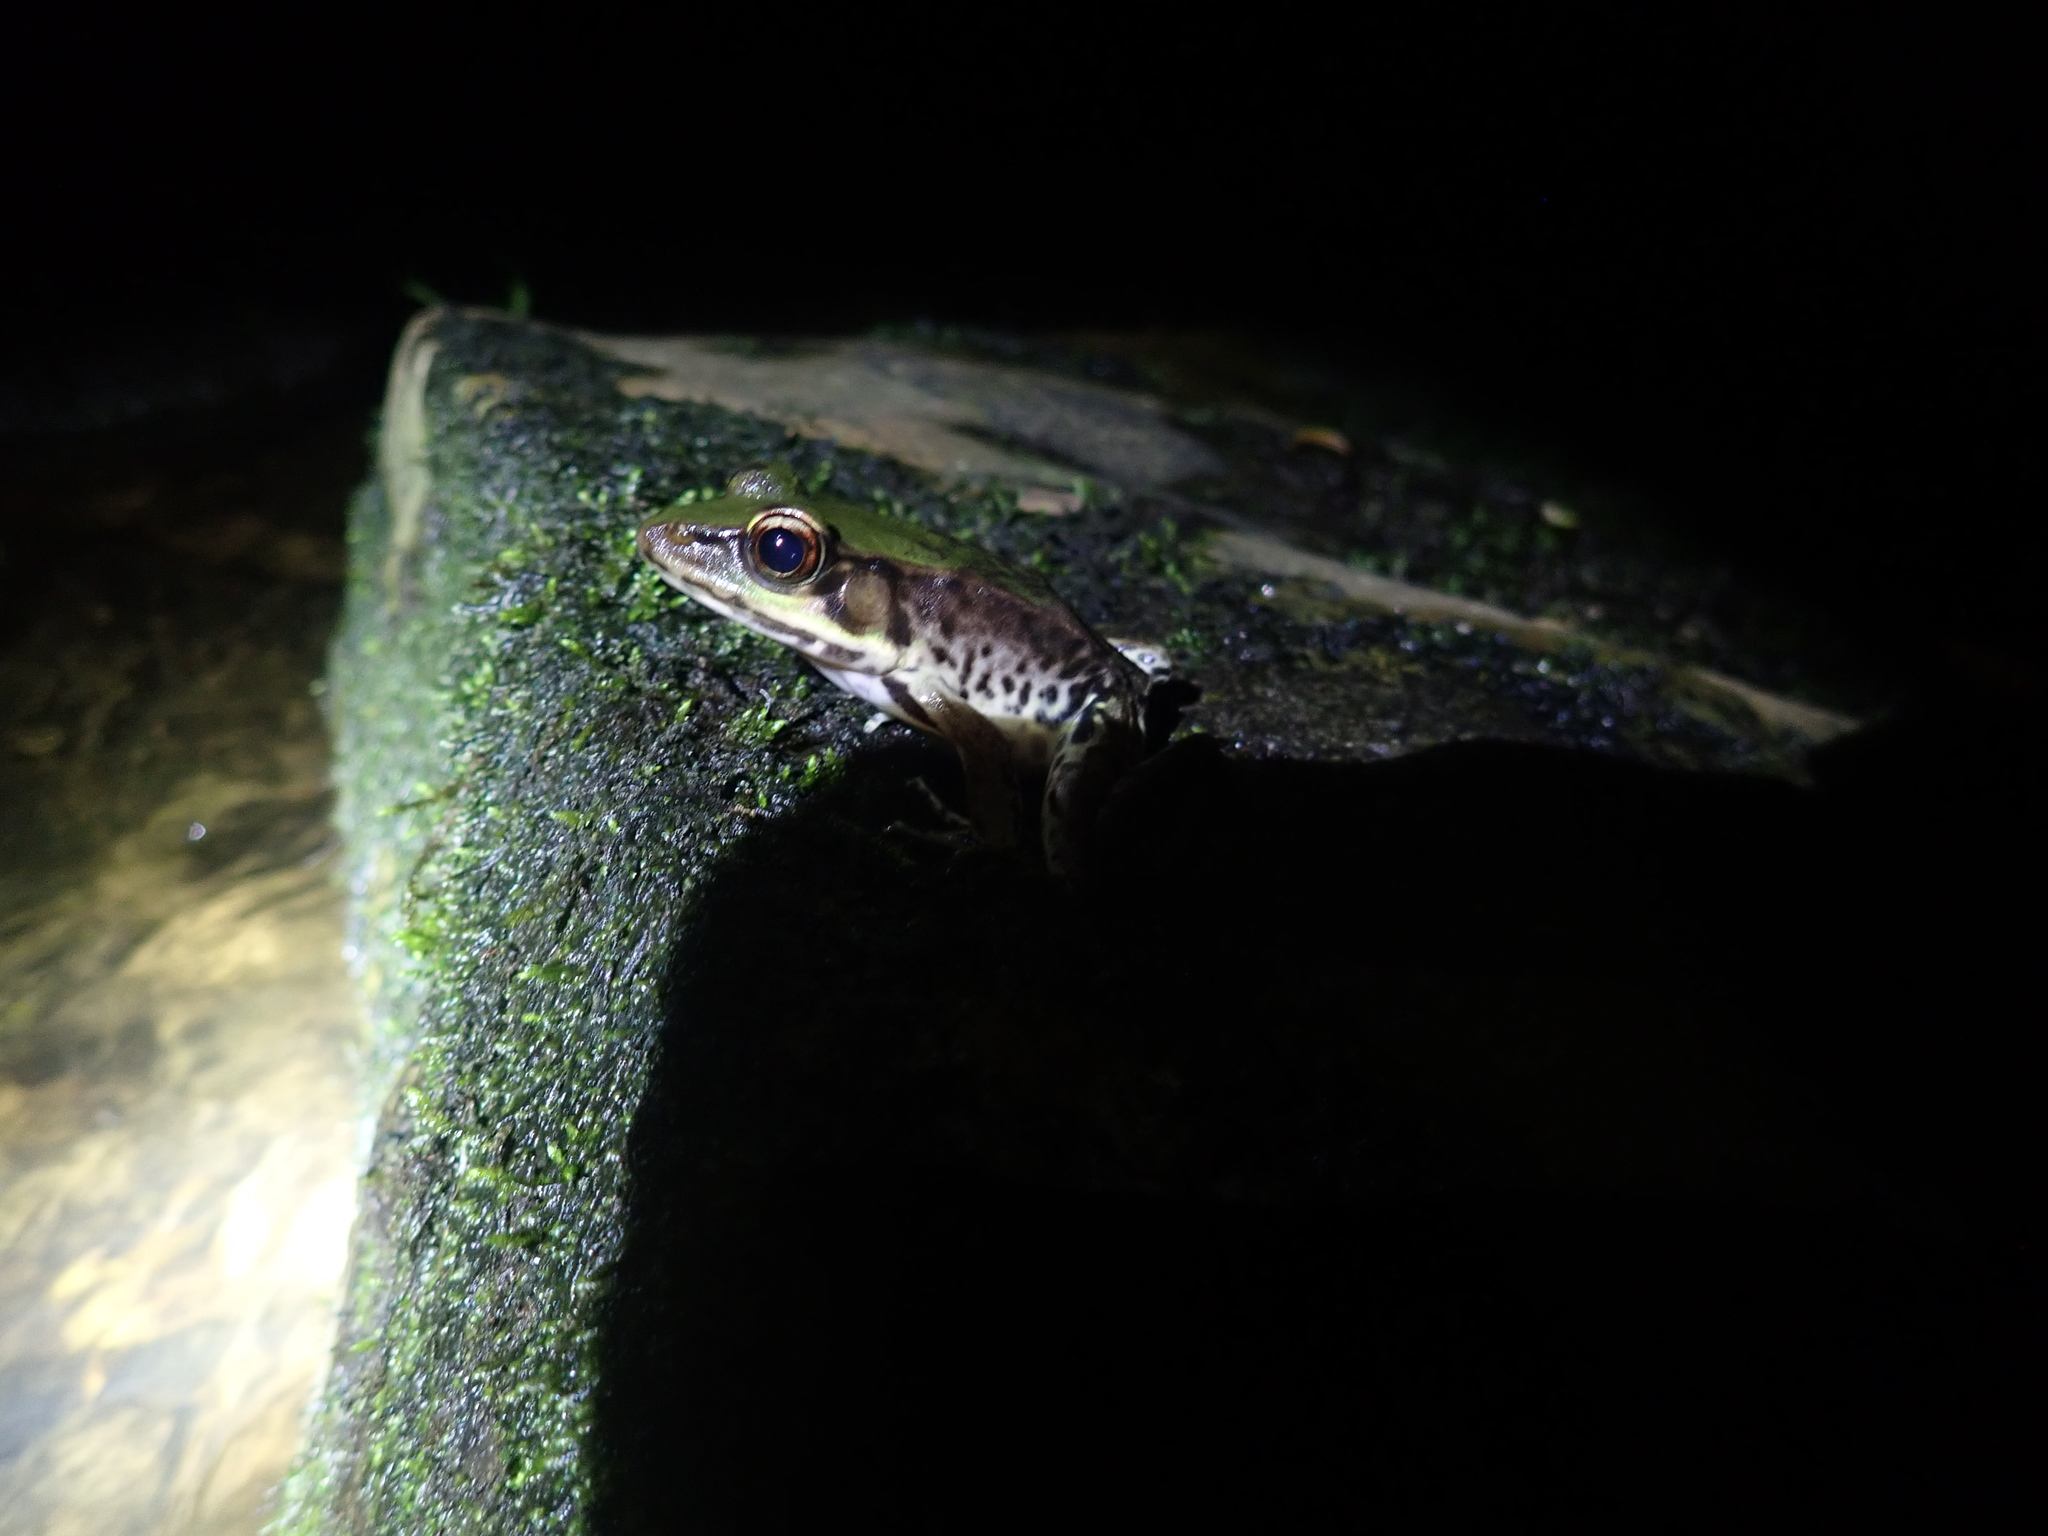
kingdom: Animalia
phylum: Chordata
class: Amphibia
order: Anura
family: Ranidae
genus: Lithobates
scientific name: Lithobates palmipes
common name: Amazon river frog
